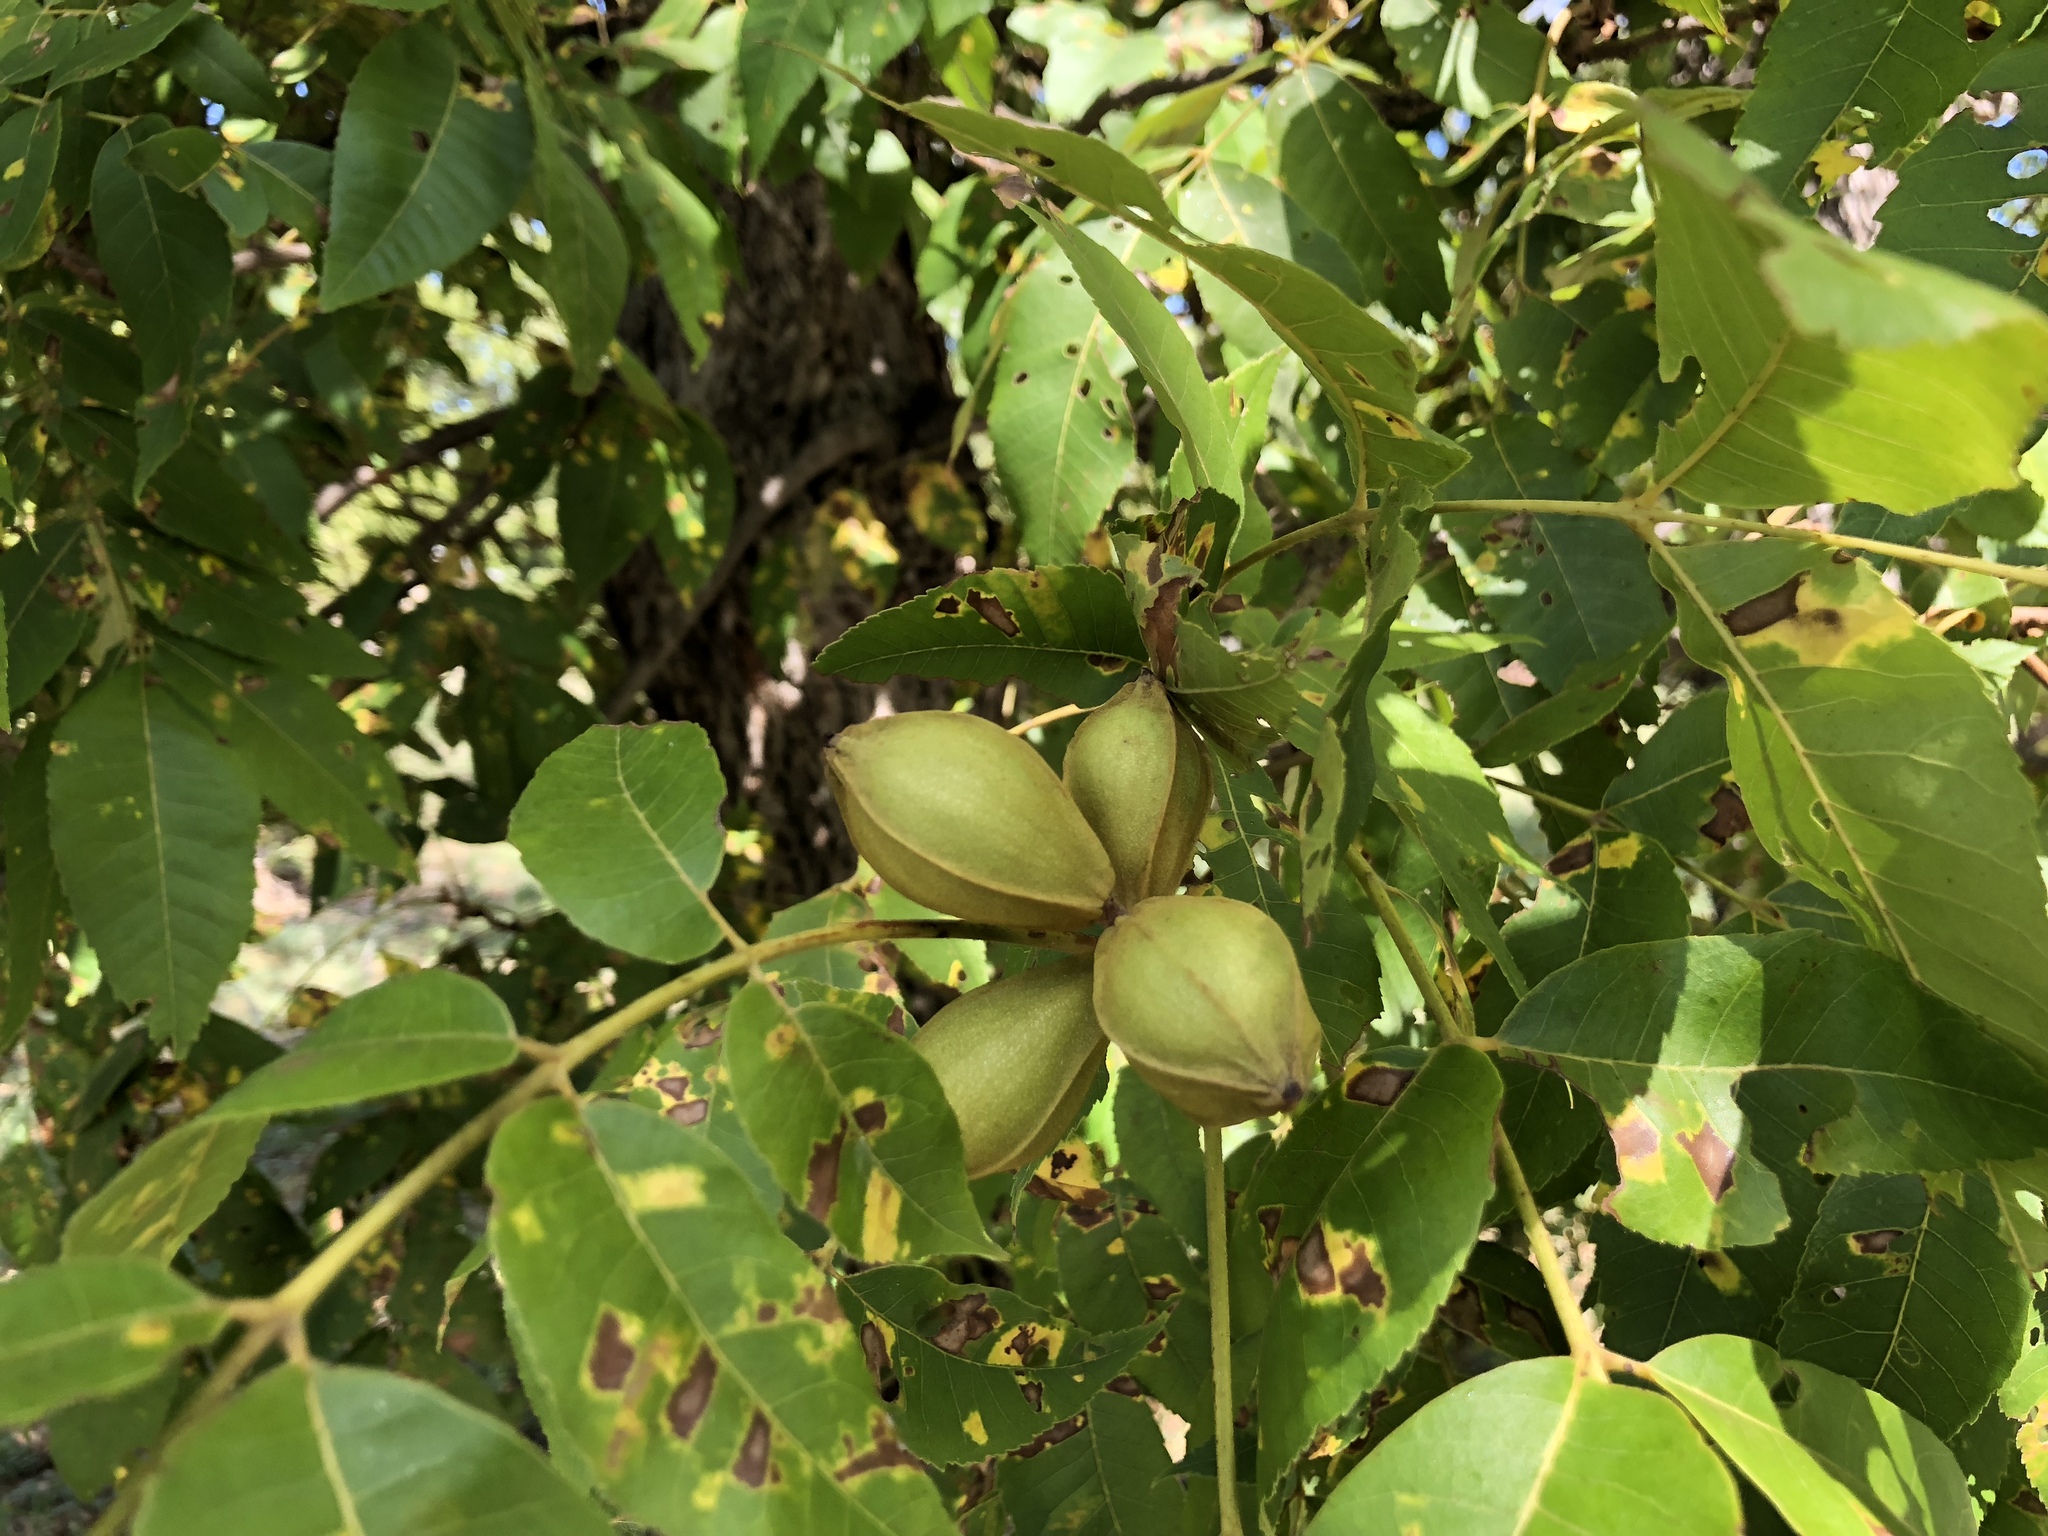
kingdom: Plantae
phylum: Tracheophyta
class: Magnoliopsida
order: Fagales
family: Juglandaceae
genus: Carya
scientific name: Carya illinoinensis
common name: Pecan
